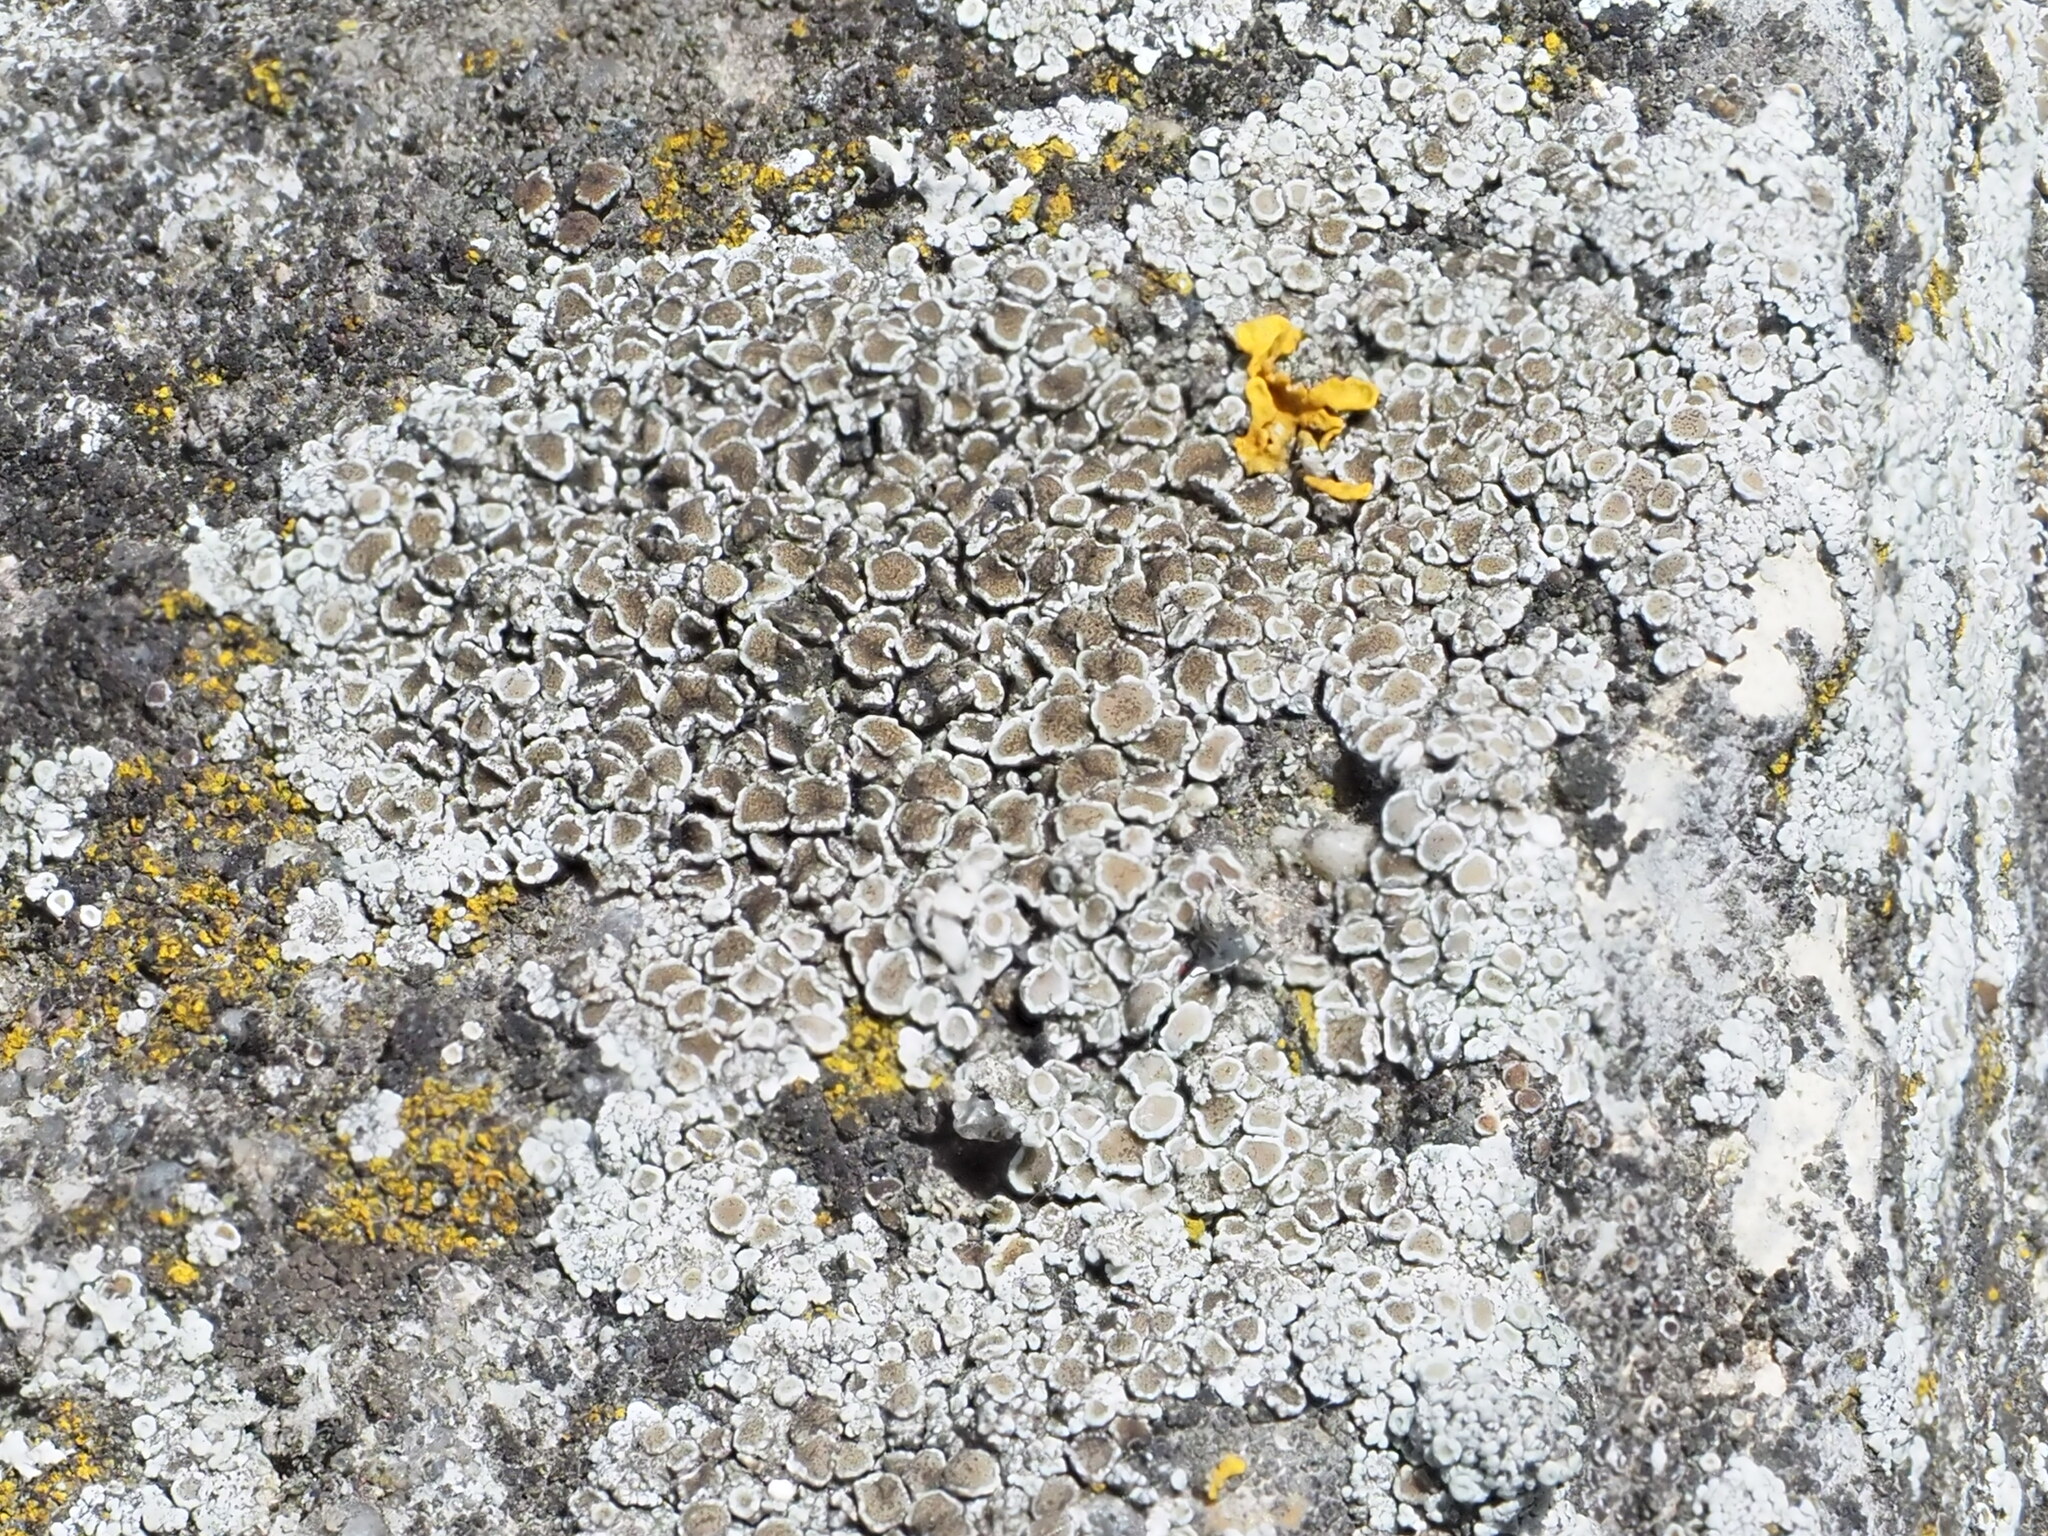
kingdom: Fungi
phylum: Ascomycota
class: Lecanoromycetes
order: Lecanorales
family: Lecanoraceae
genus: Polyozosia
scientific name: Polyozosia albescens
